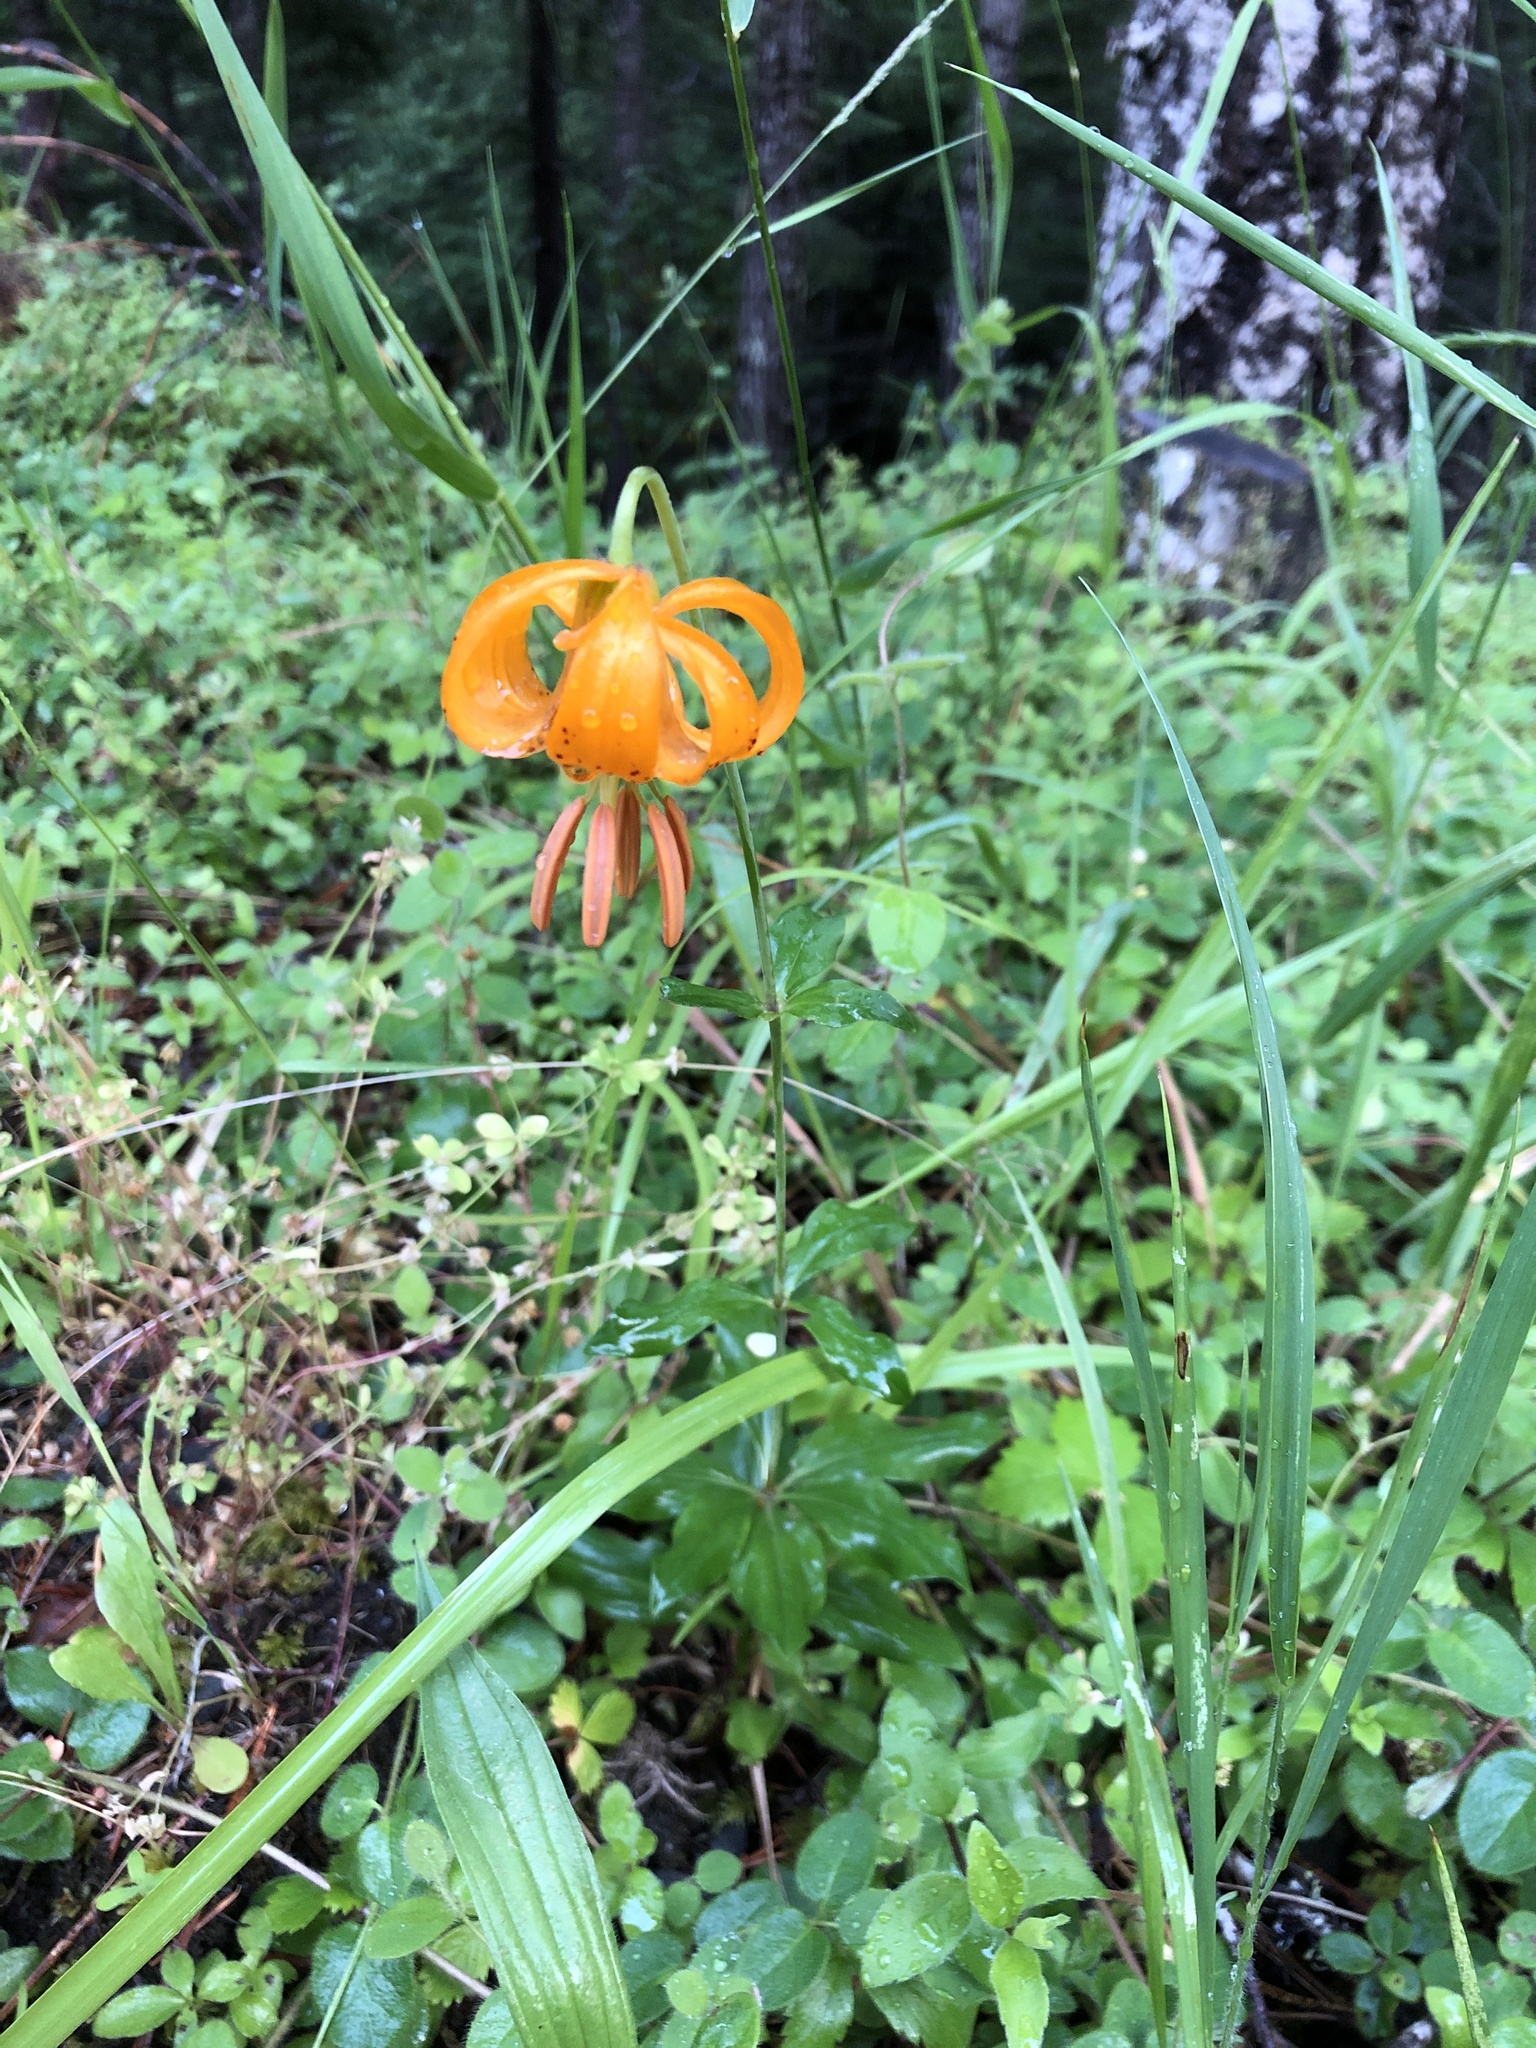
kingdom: Plantae
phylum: Tracheophyta
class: Liliopsida
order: Liliales
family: Liliaceae
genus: Lilium
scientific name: Lilium columbianum
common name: Columbia lily
